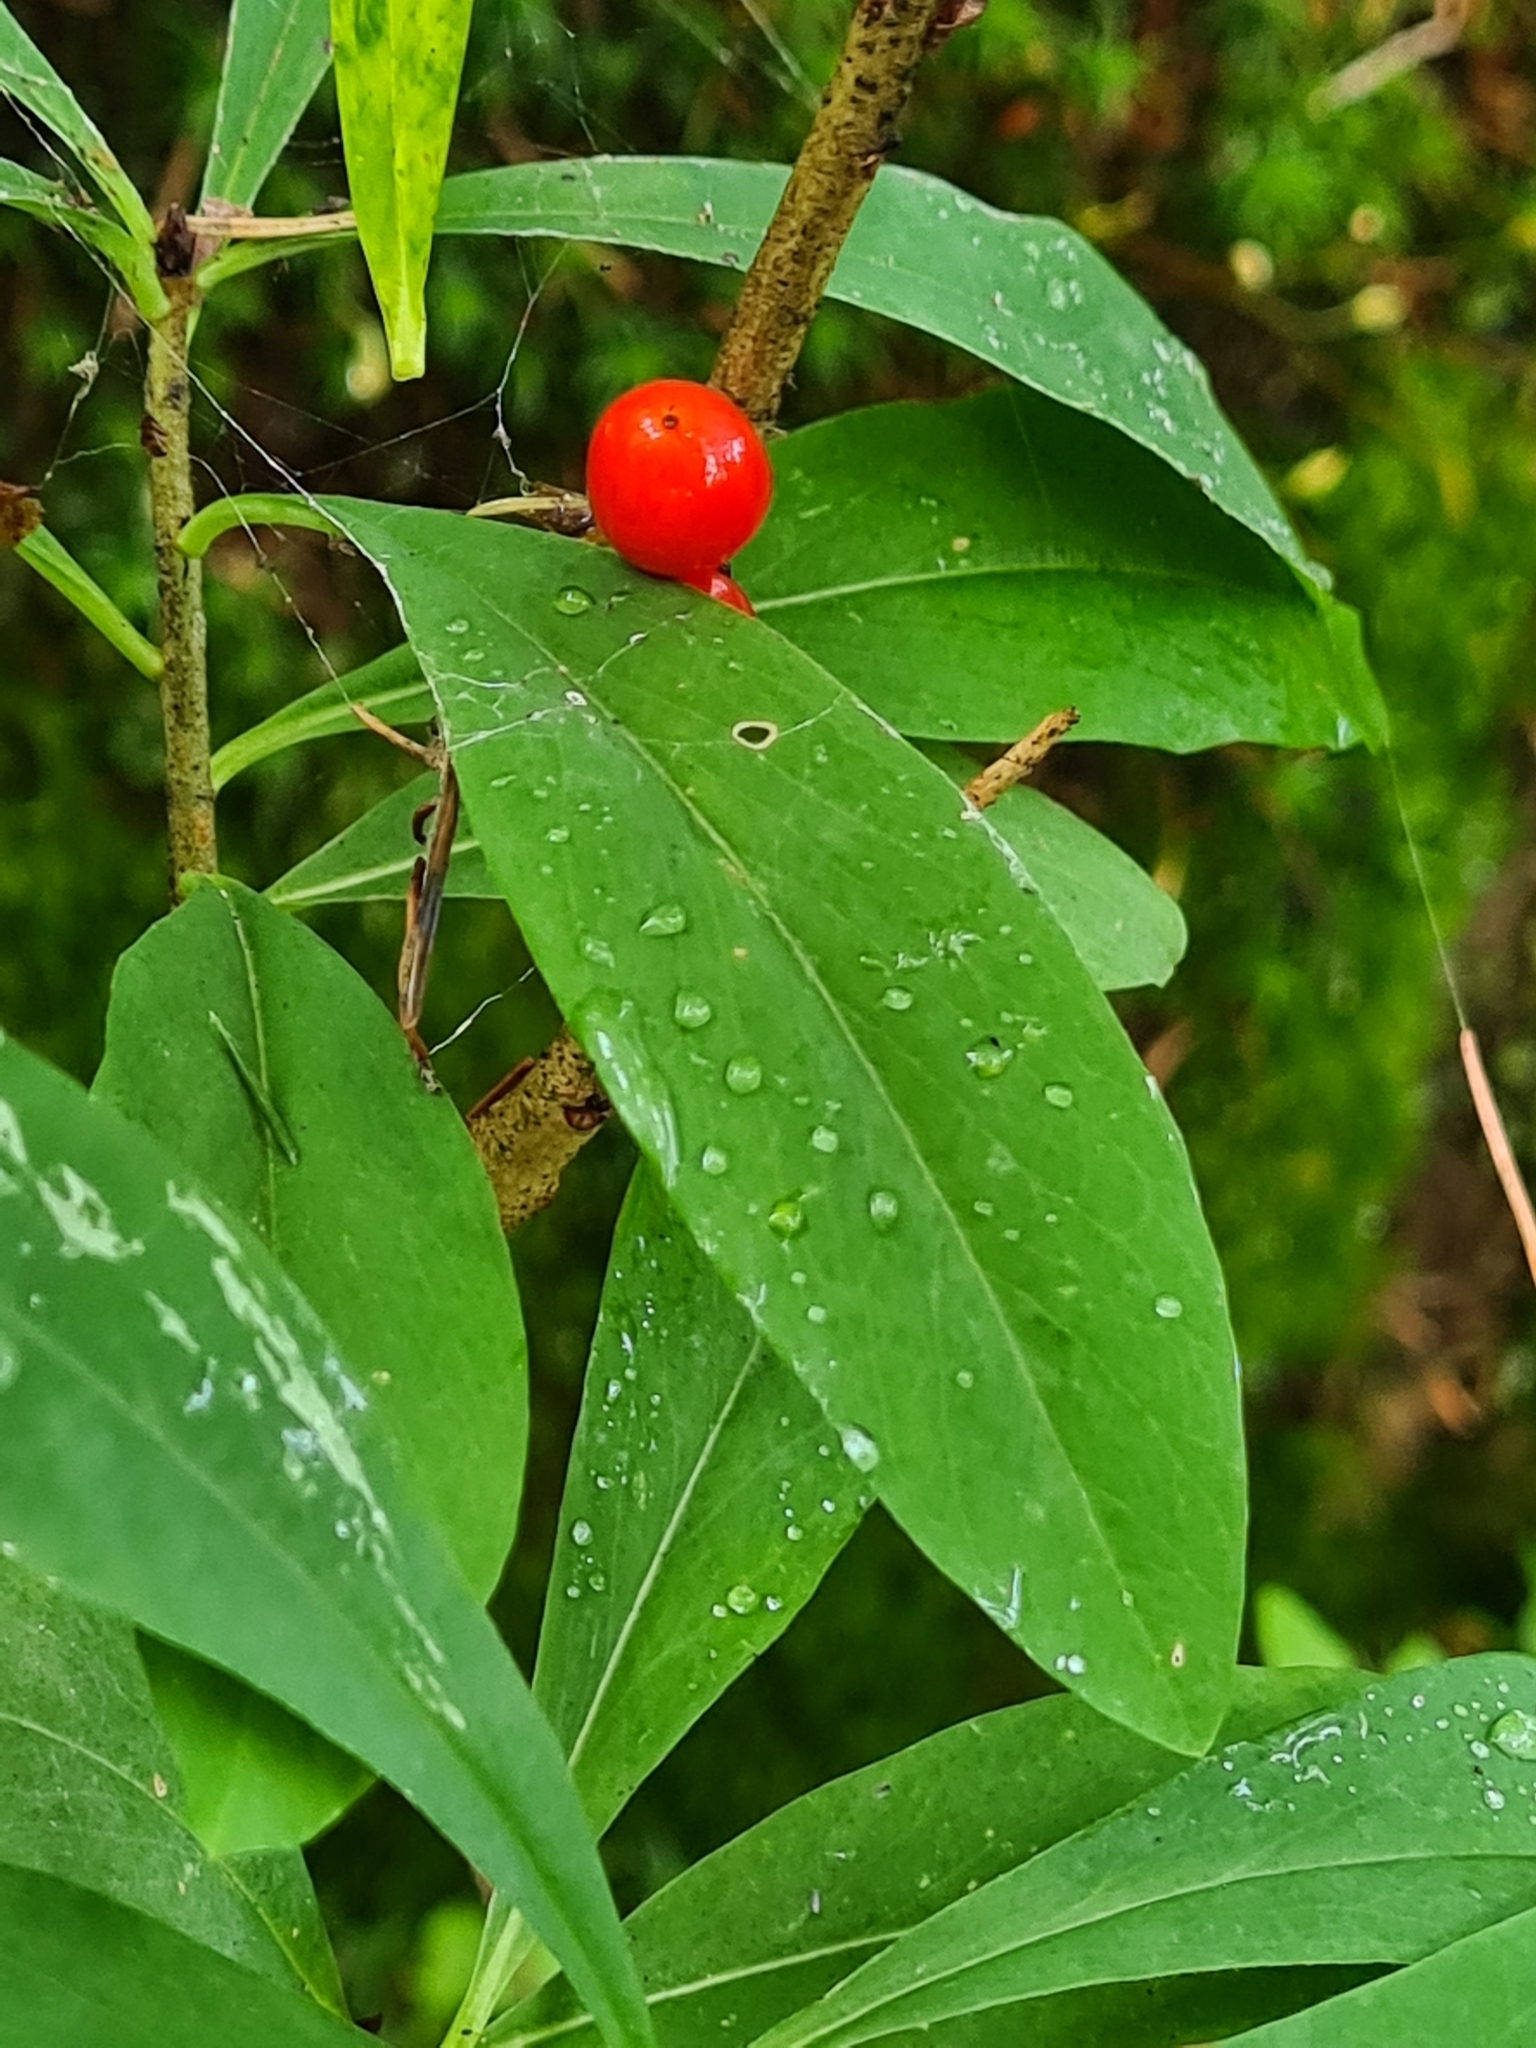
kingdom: Plantae
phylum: Tracheophyta
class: Magnoliopsida
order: Malvales
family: Thymelaeaceae
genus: Daphne
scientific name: Daphne mezereum
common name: Mezereon
